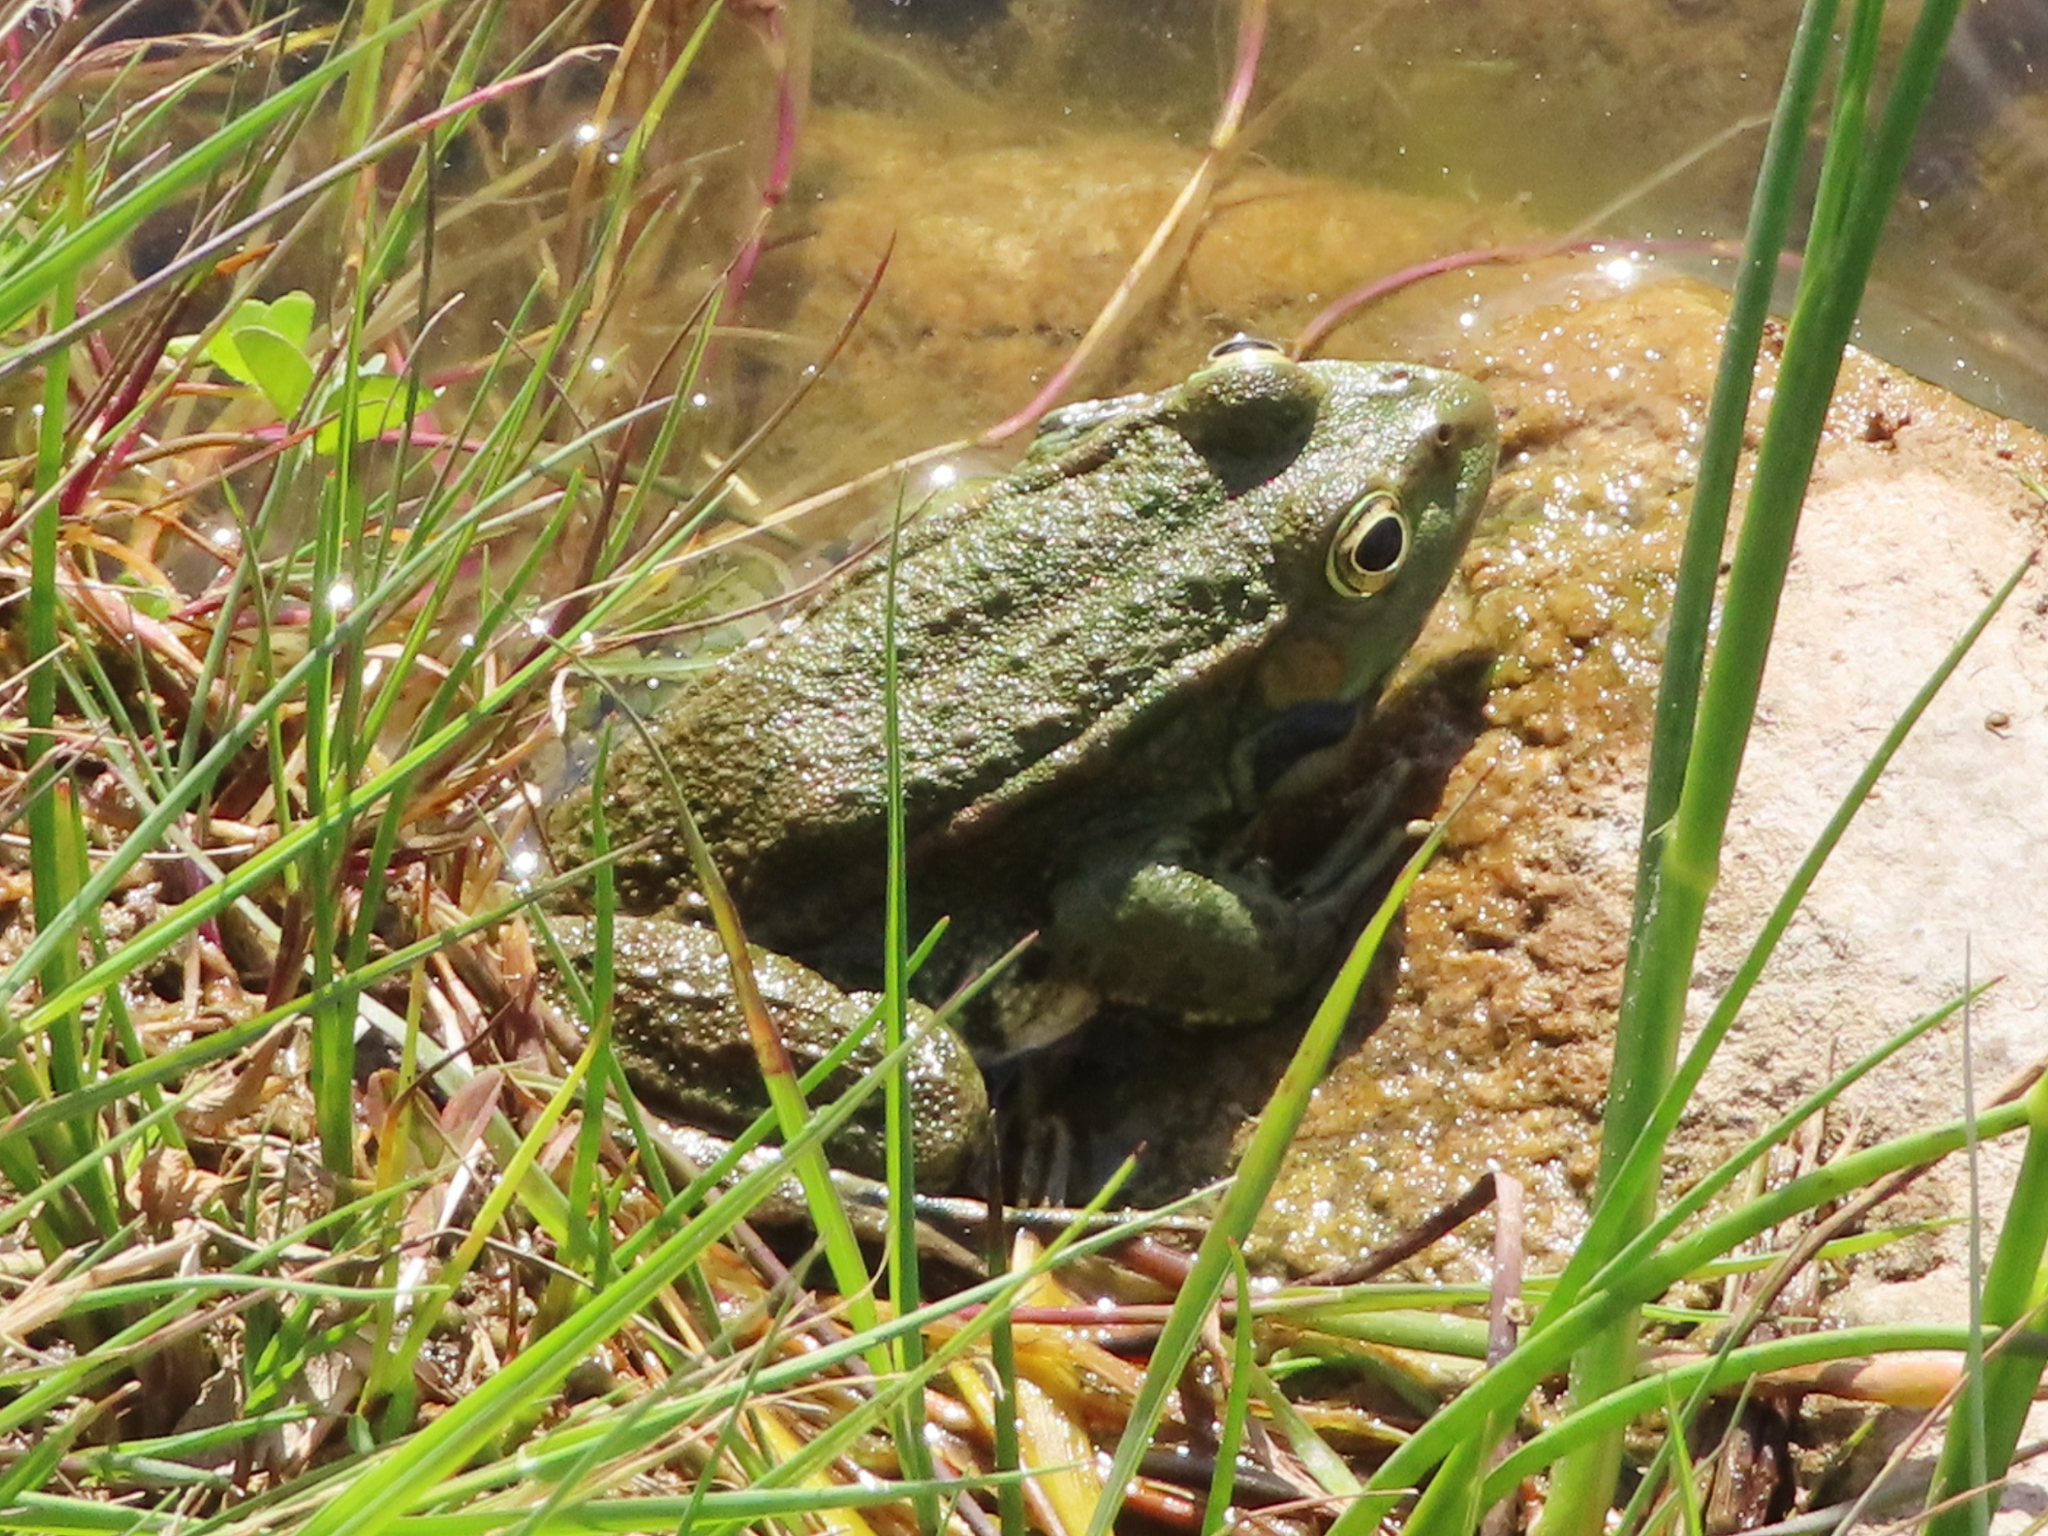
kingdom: Animalia
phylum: Chordata
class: Amphibia
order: Anura
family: Ranidae
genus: Pelophylax
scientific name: Pelophylax ridibundus
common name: Marsh frog
